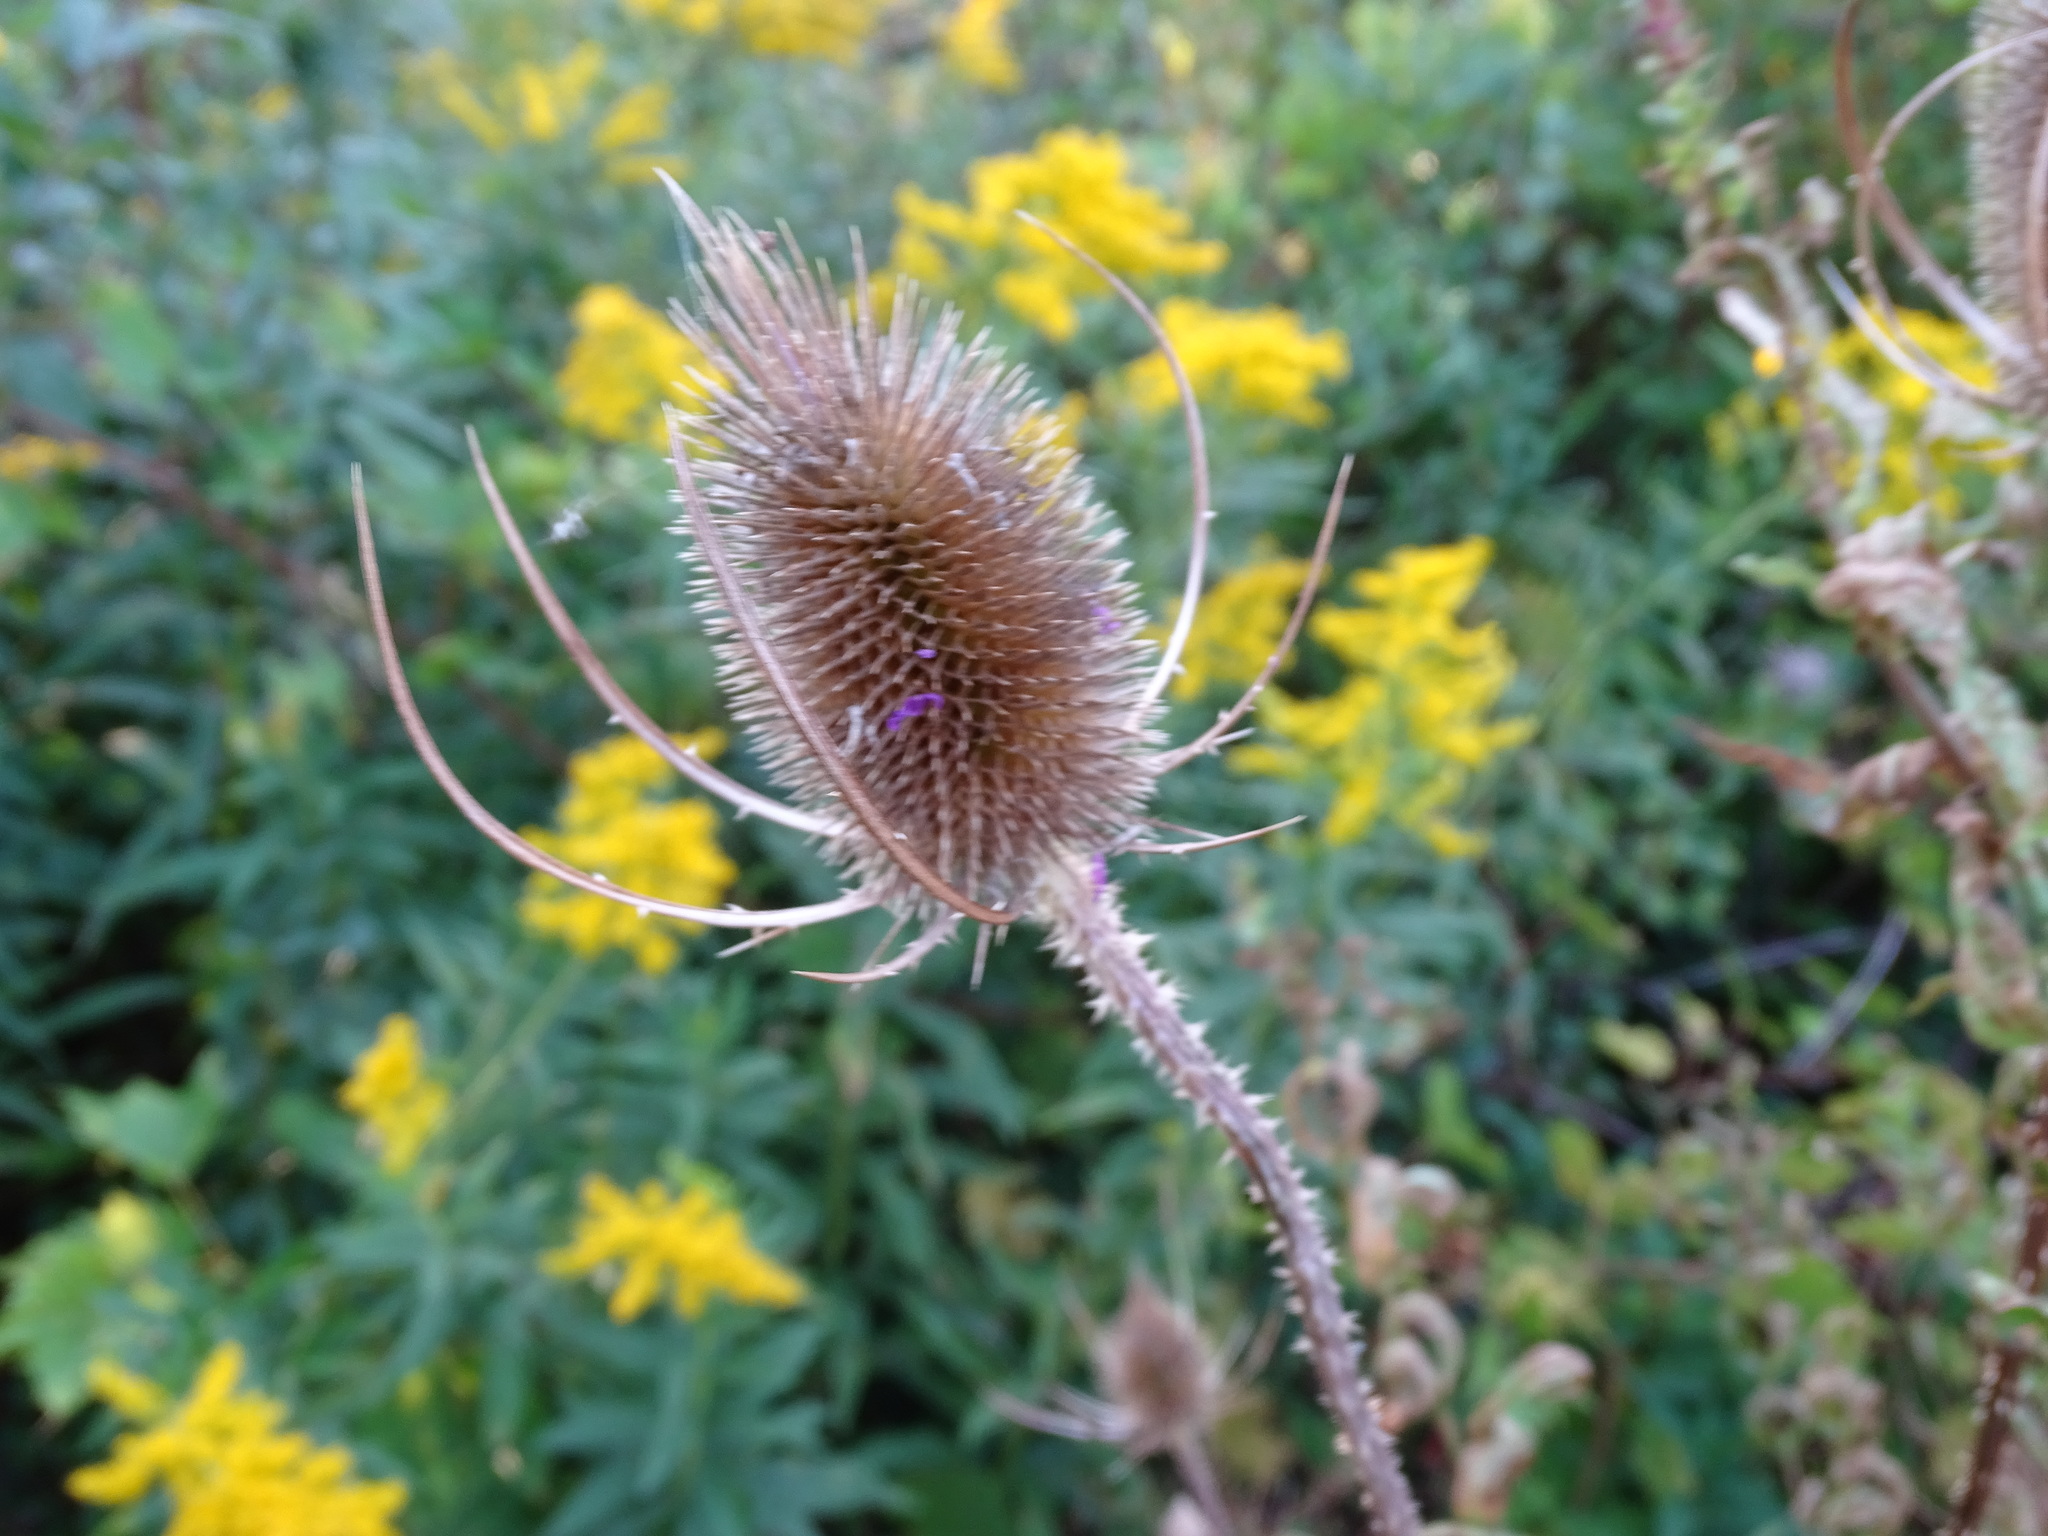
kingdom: Plantae
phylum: Tracheophyta
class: Magnoliopsida
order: Dipsacales
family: Caprifoliaceae
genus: Dipsacus
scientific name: Dipsacus fullonum
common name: Teasel
